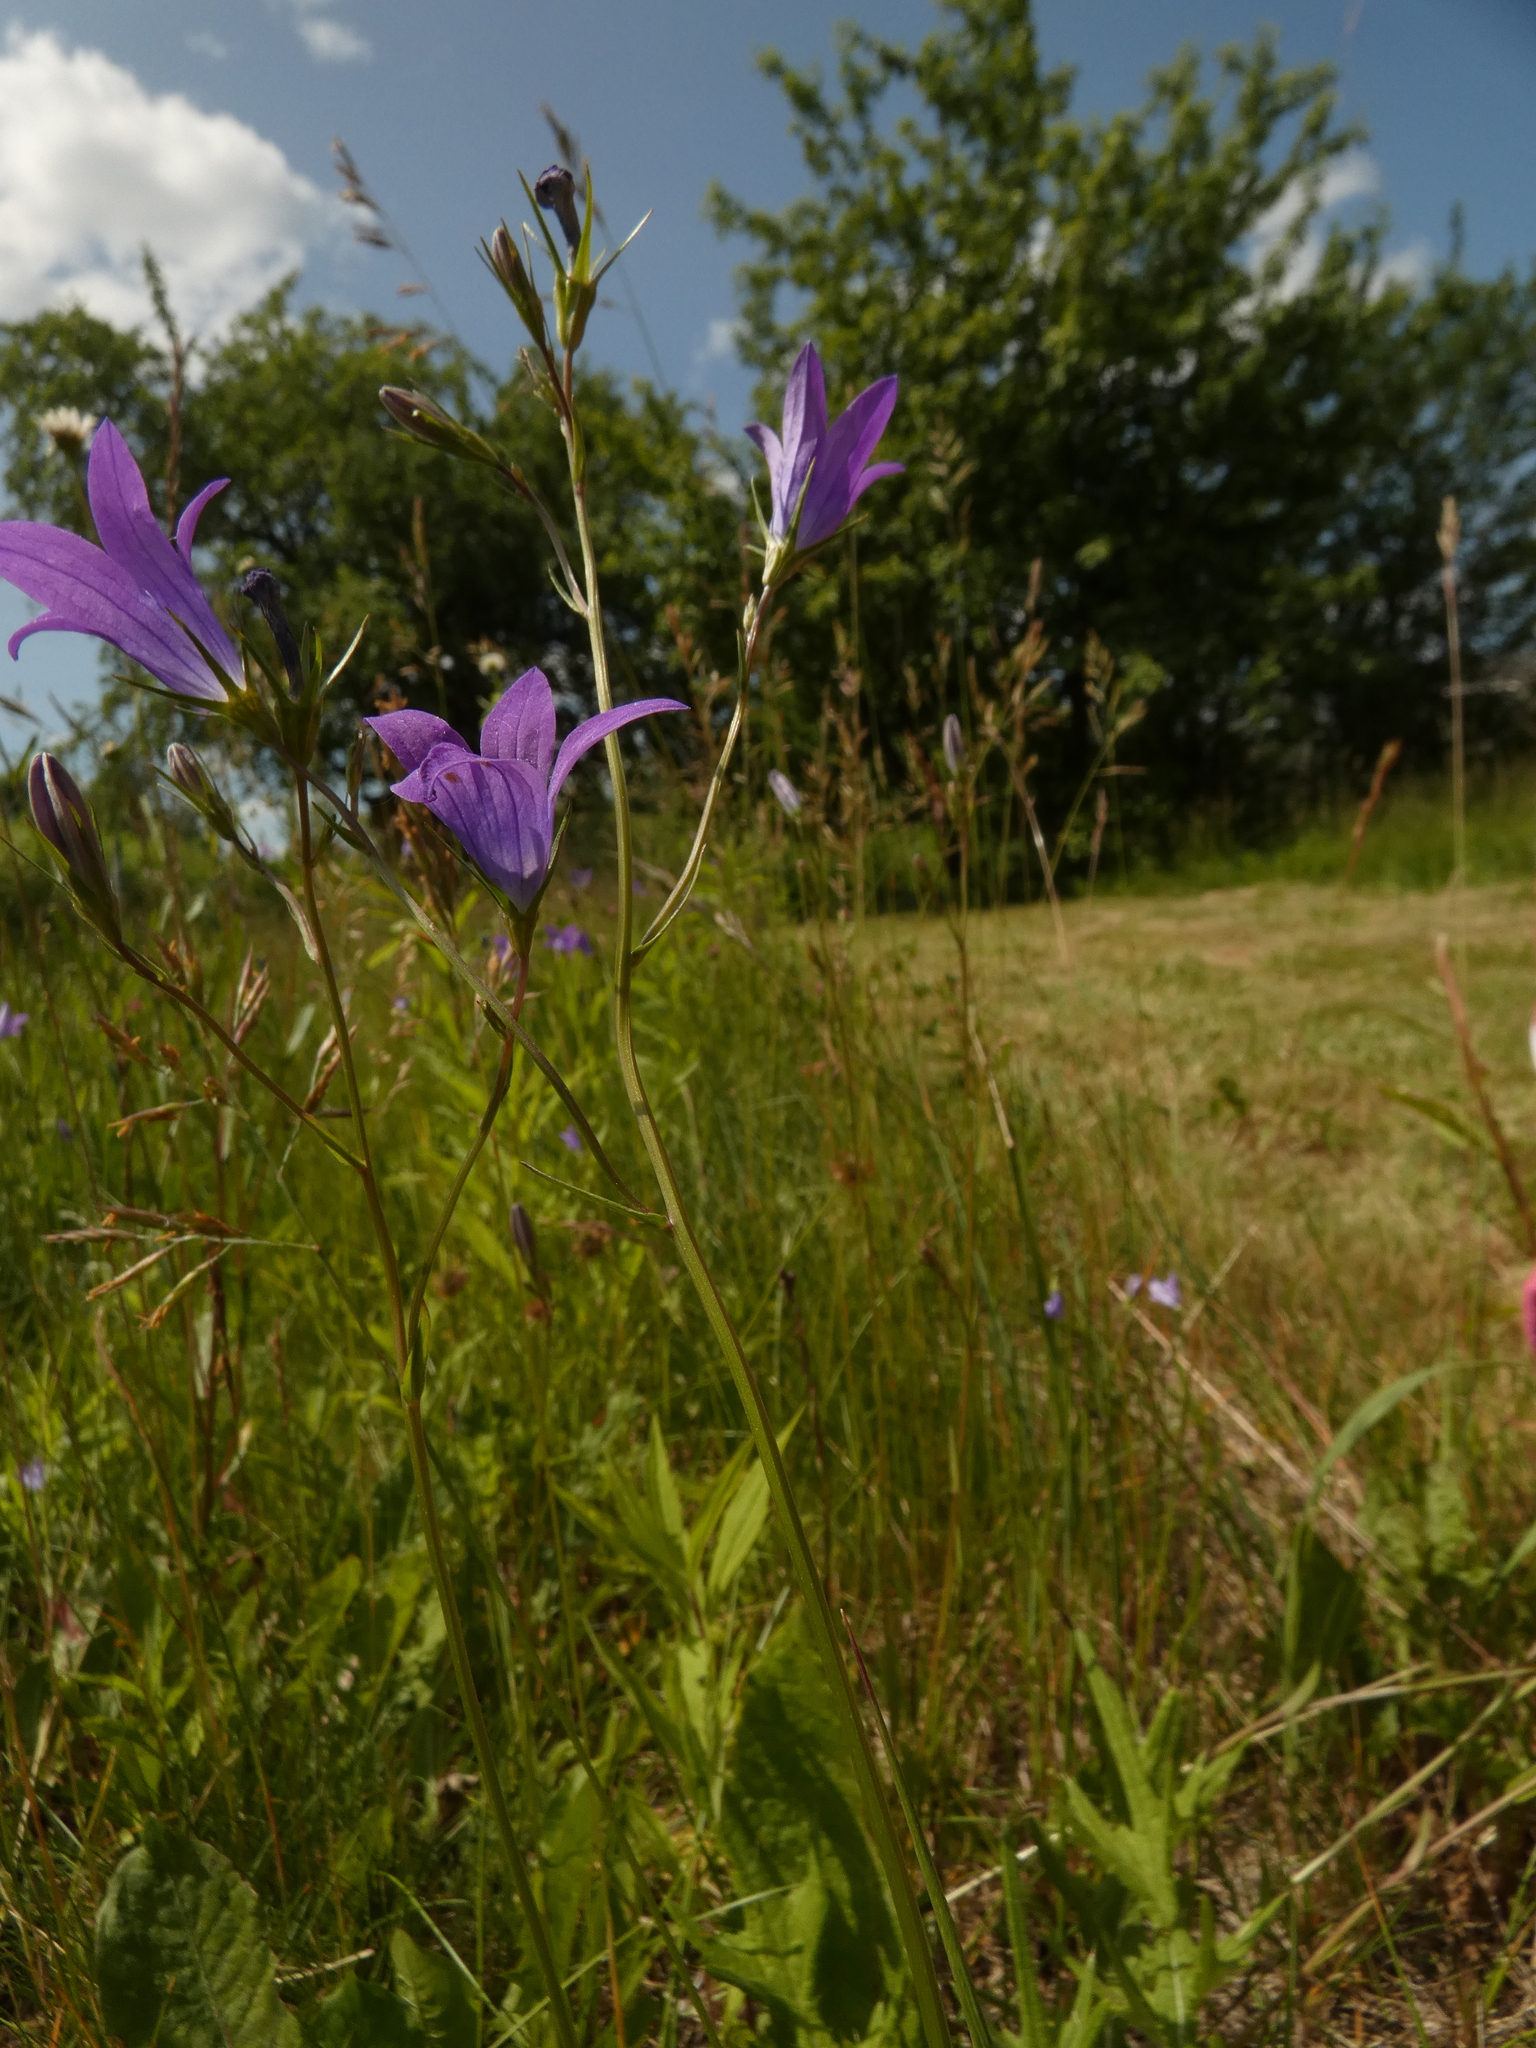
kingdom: Plantae
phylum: Tracheophyta
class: Magnoliopsida
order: Asterales
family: Campanulaceae
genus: Campanula
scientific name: Campanula patula
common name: Spreading bellflower
